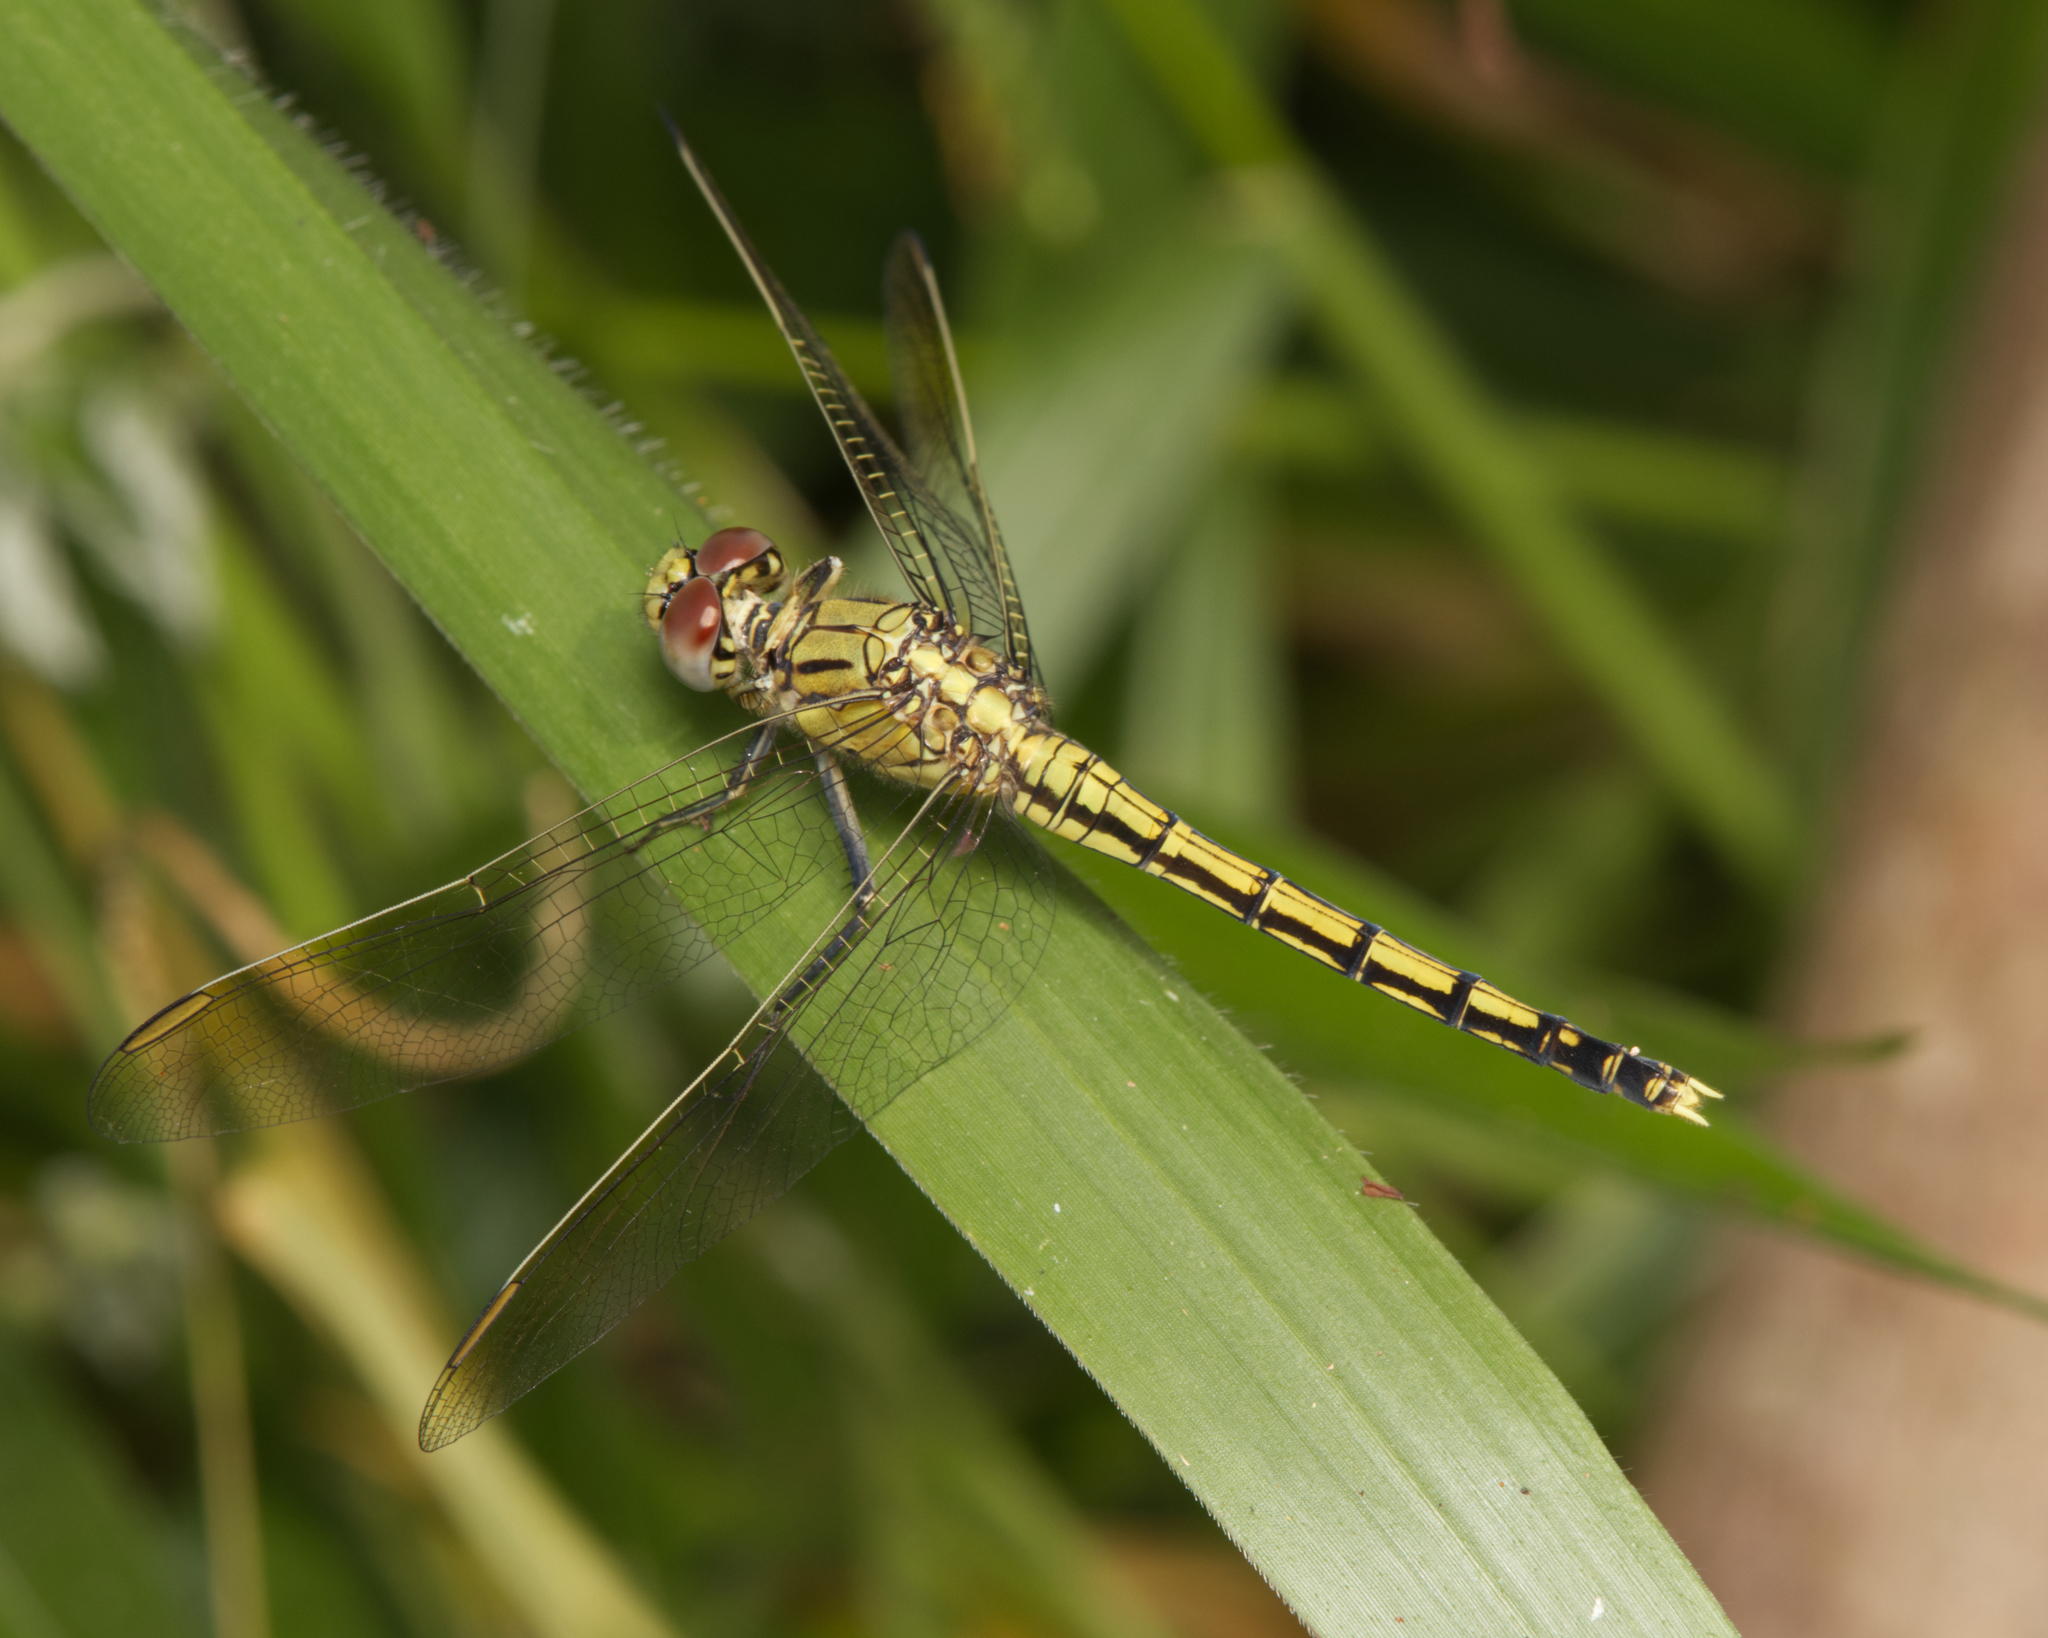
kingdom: Animalia
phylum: Arthropoda
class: Insecta
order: Odonata
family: Libellulidae
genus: Orthetrum
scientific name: Orthetrum caledonicum
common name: Blue skimmer
